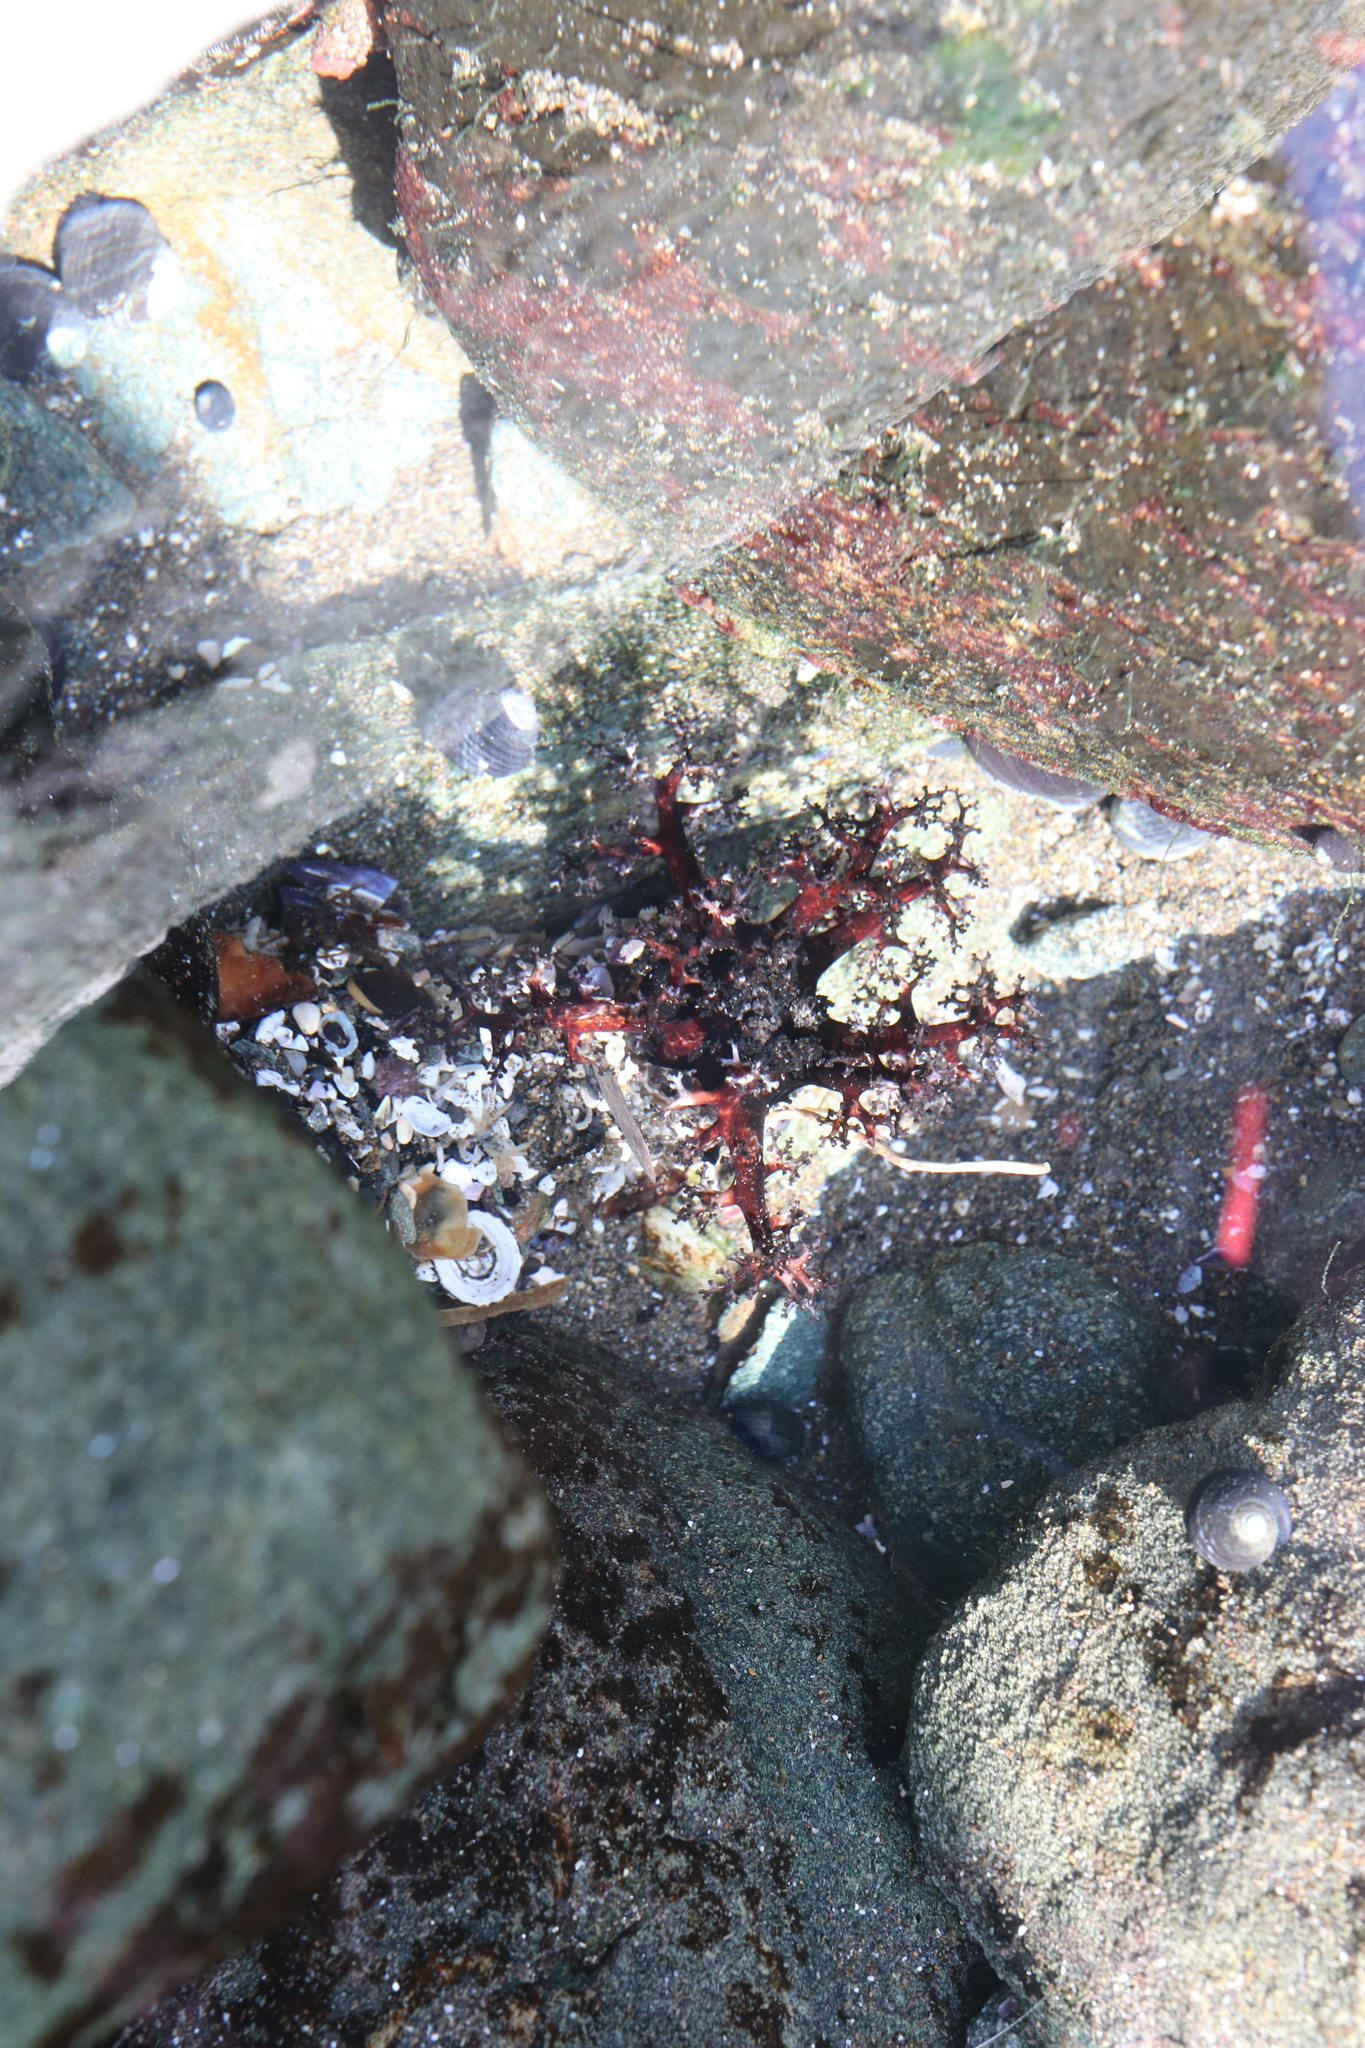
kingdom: Animalia
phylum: Echinodermata
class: Holothuroidea
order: Dendrochirotida
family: Cucumariidae
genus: Athyonidium
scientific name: Athyonidium chilensis
